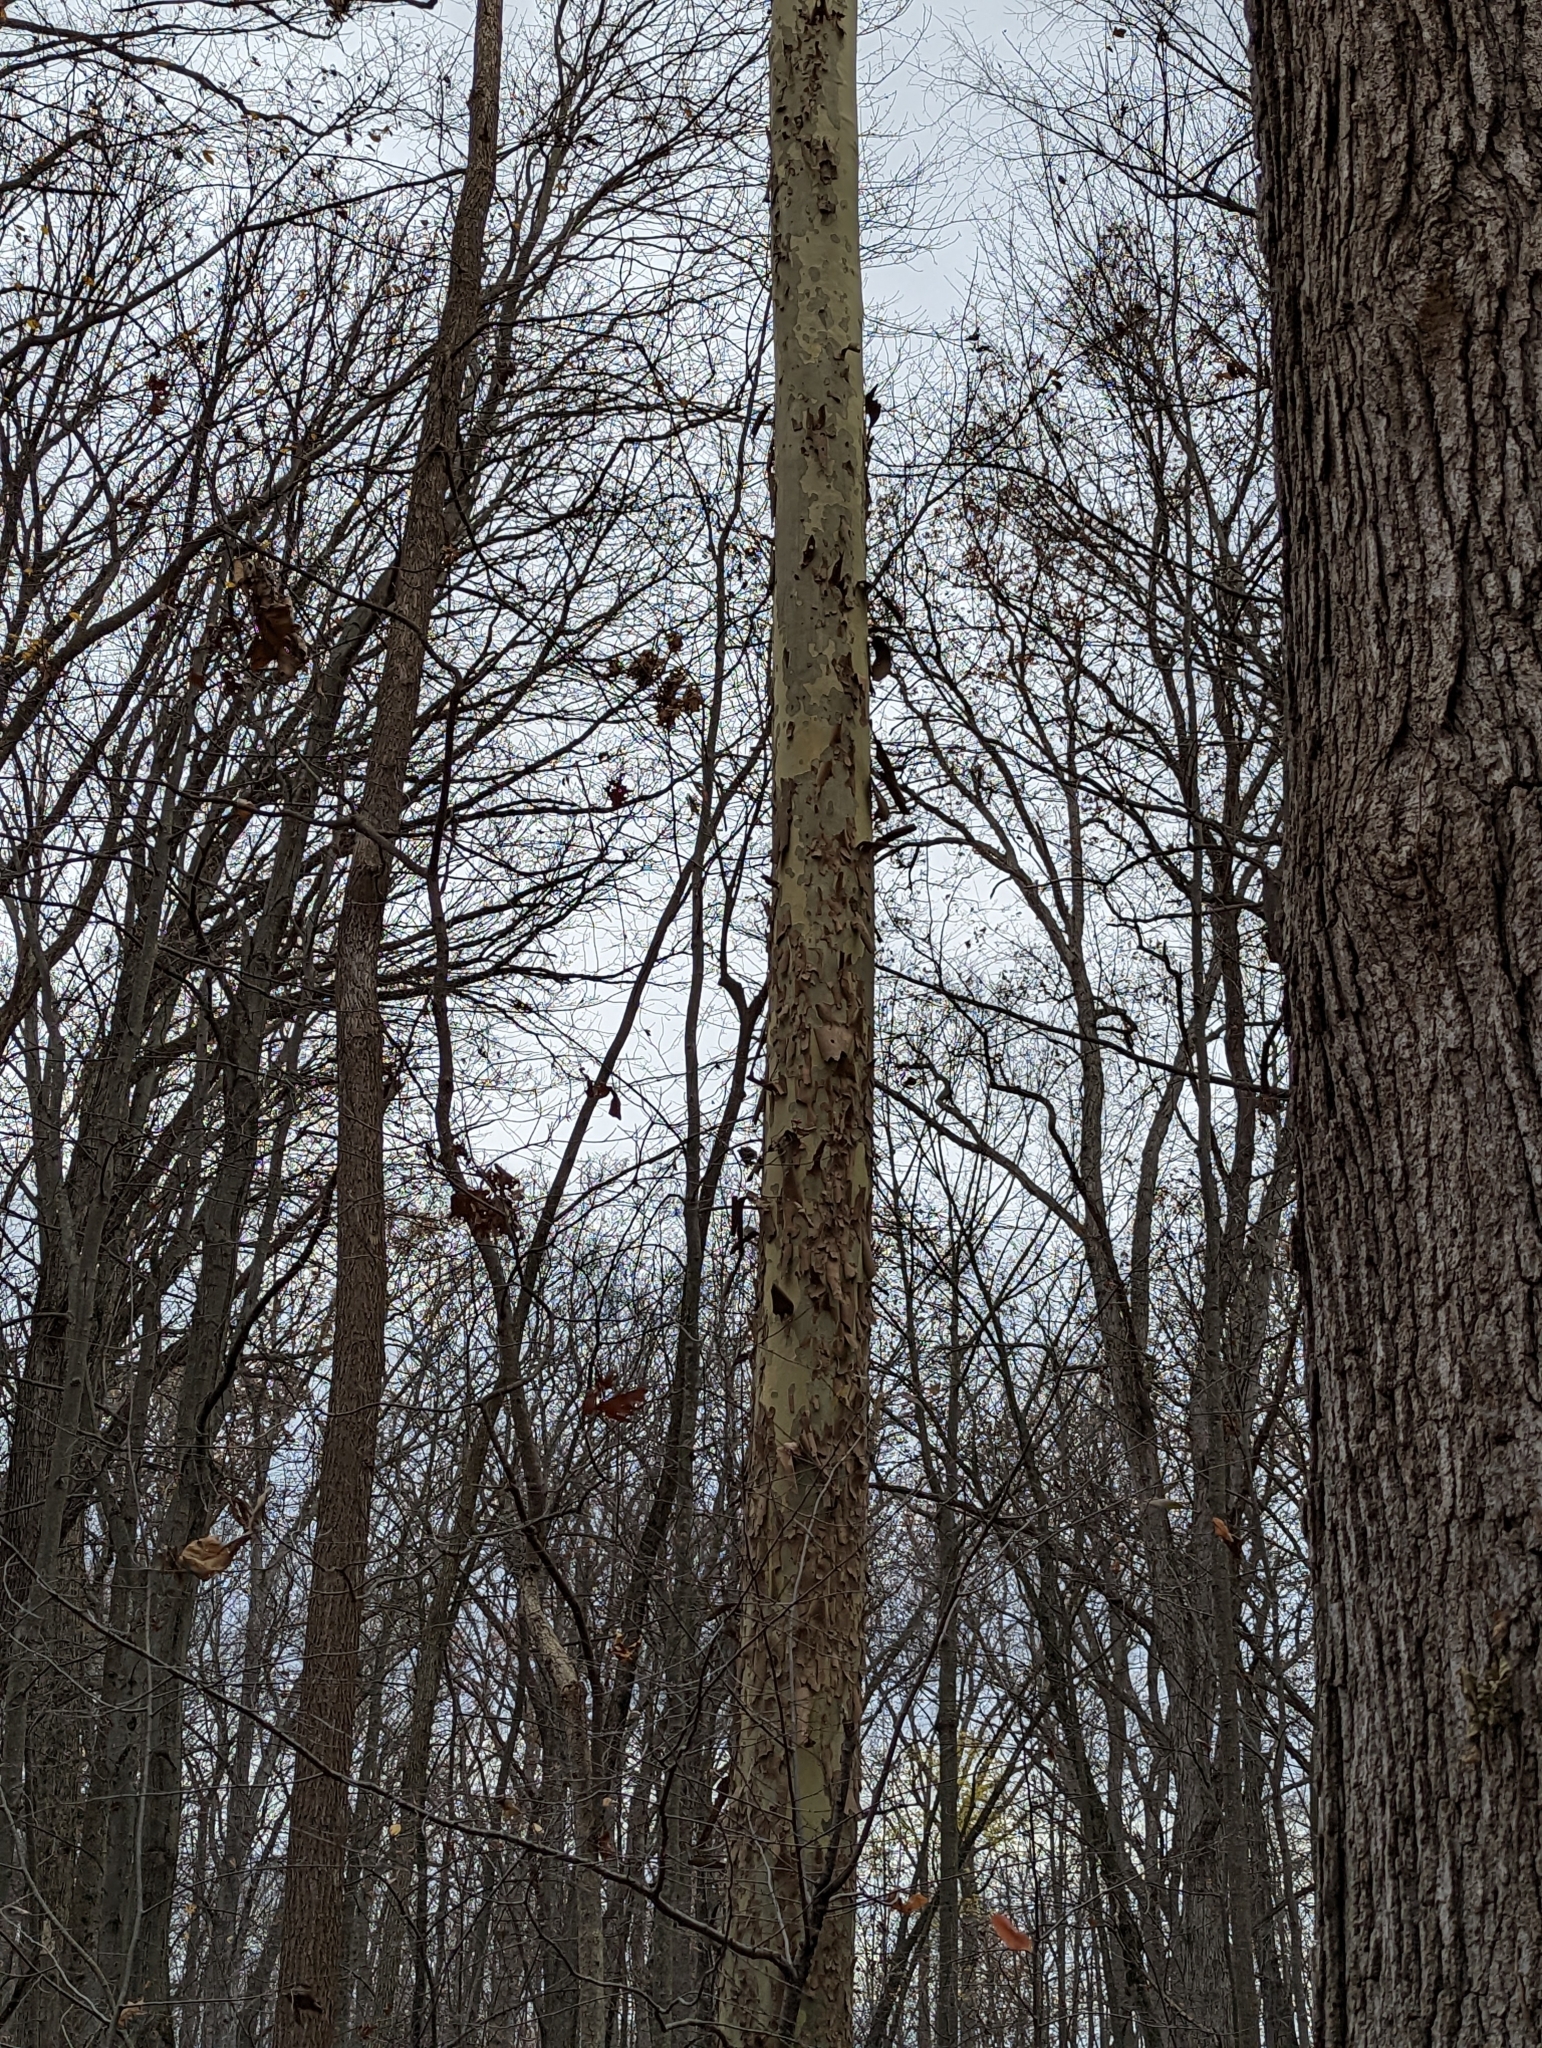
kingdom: Plantae
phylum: Tracheophyta
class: Magnoliopsida
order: Proteales
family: Platanaceae
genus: Platanus
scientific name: Platanus occidentalis
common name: American sycamore
